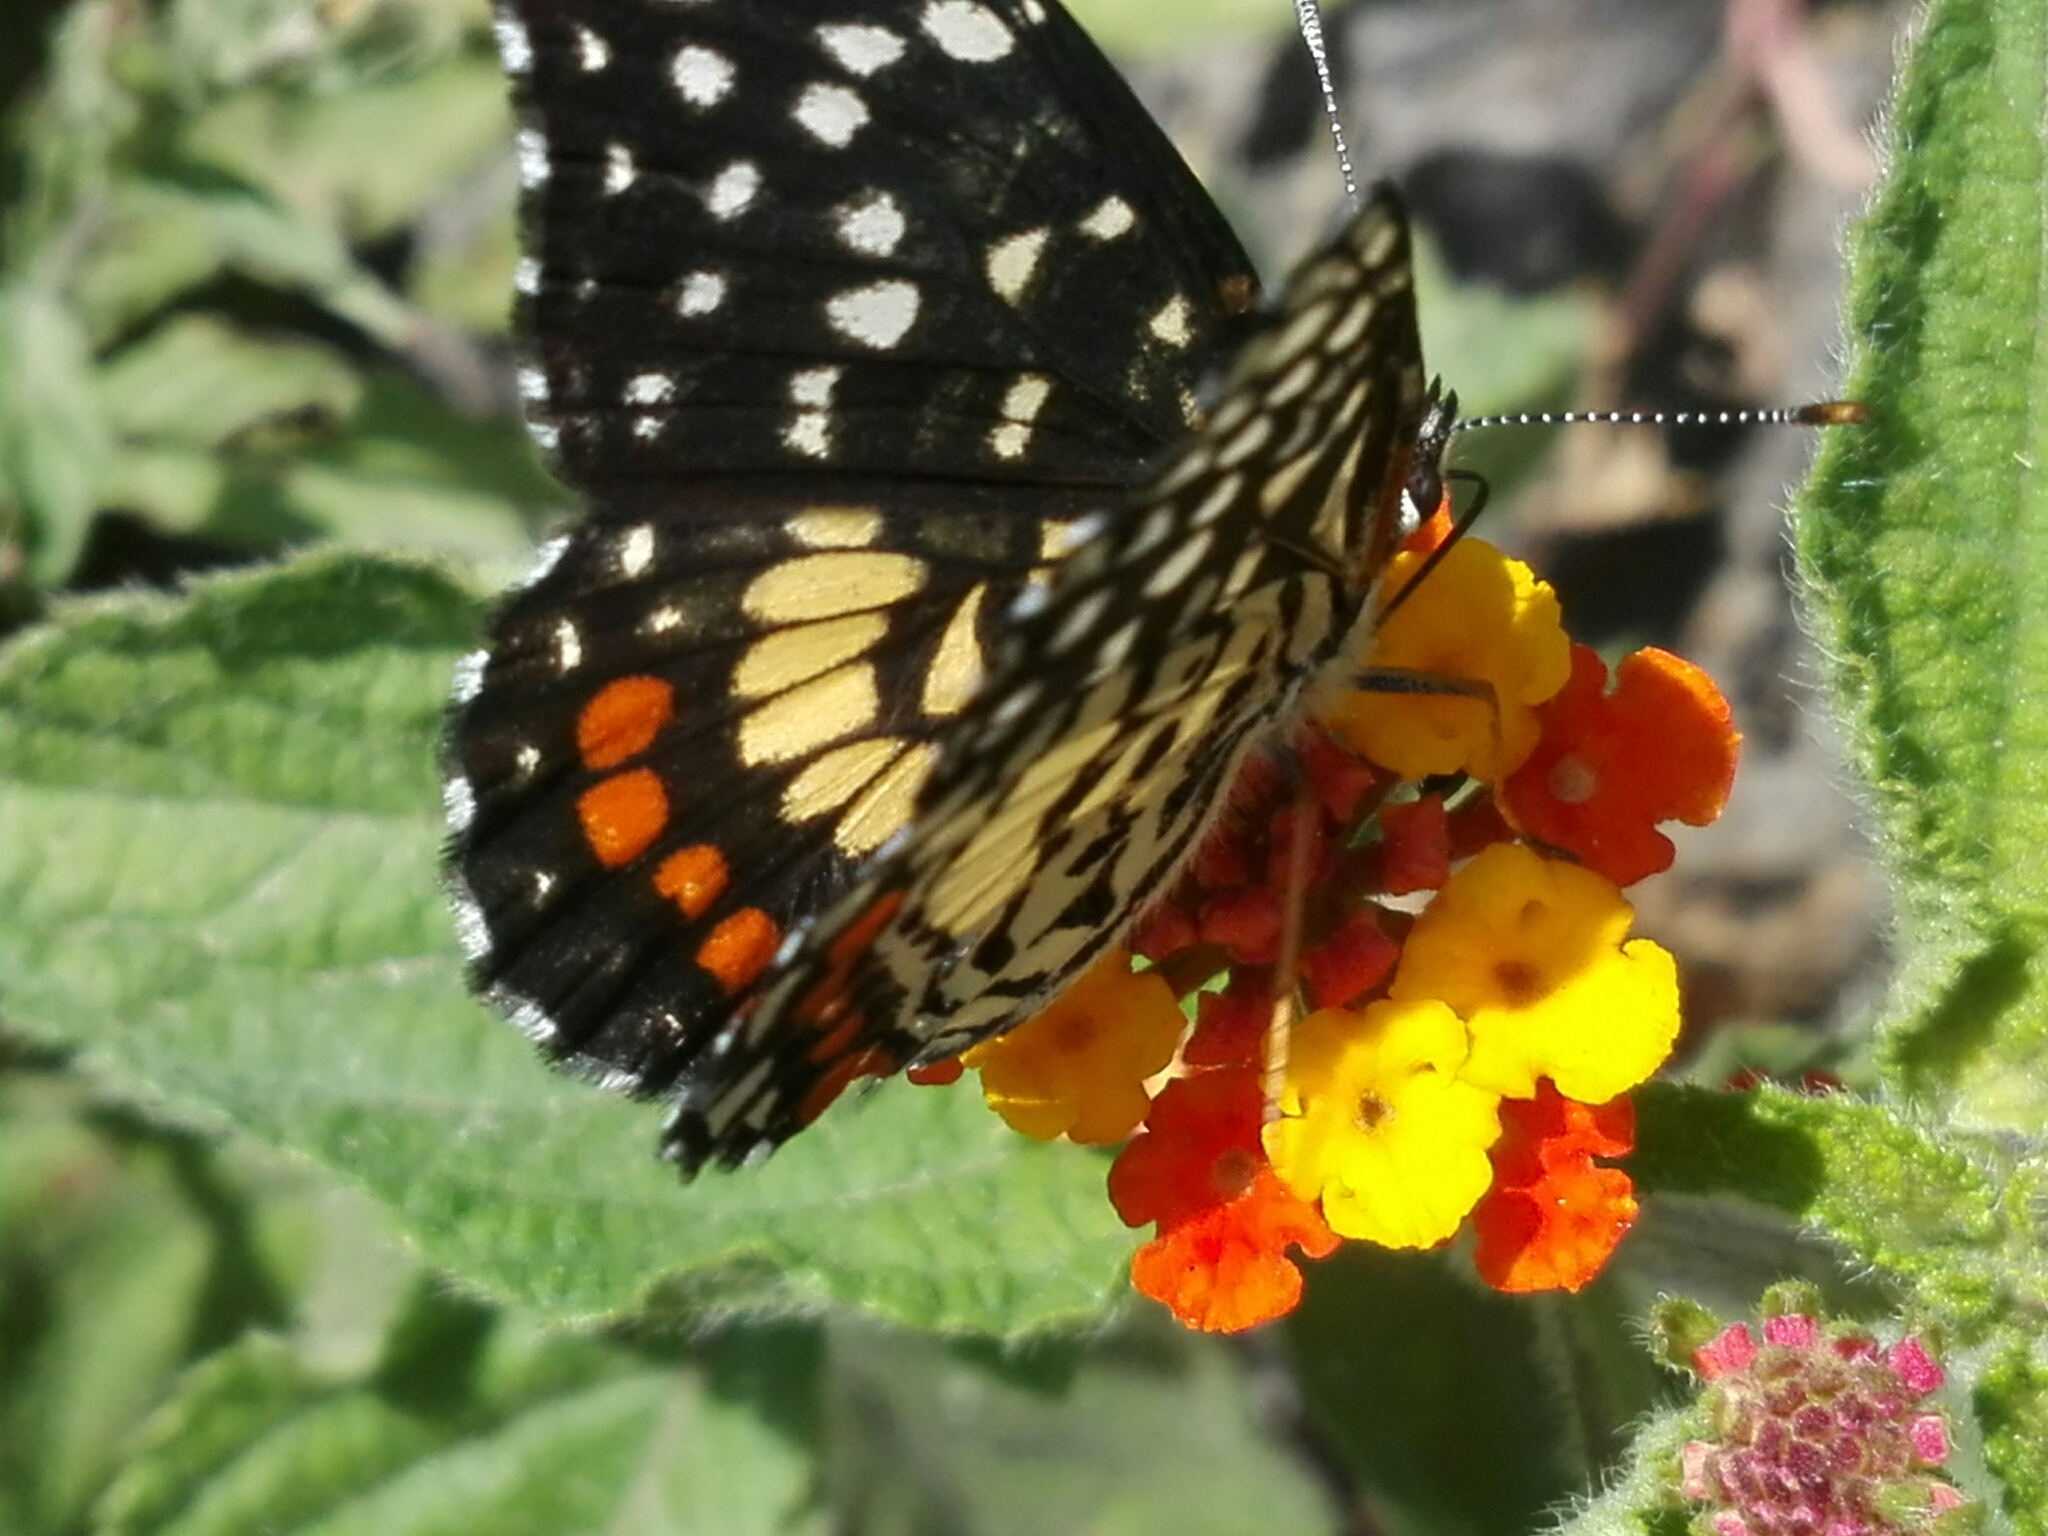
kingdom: Animalia
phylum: Arthropoda
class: Insecta
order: Lepidoptera
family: Nymphalidae
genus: Chlosyne
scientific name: Chlosyne marina
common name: Red-spotted patch
